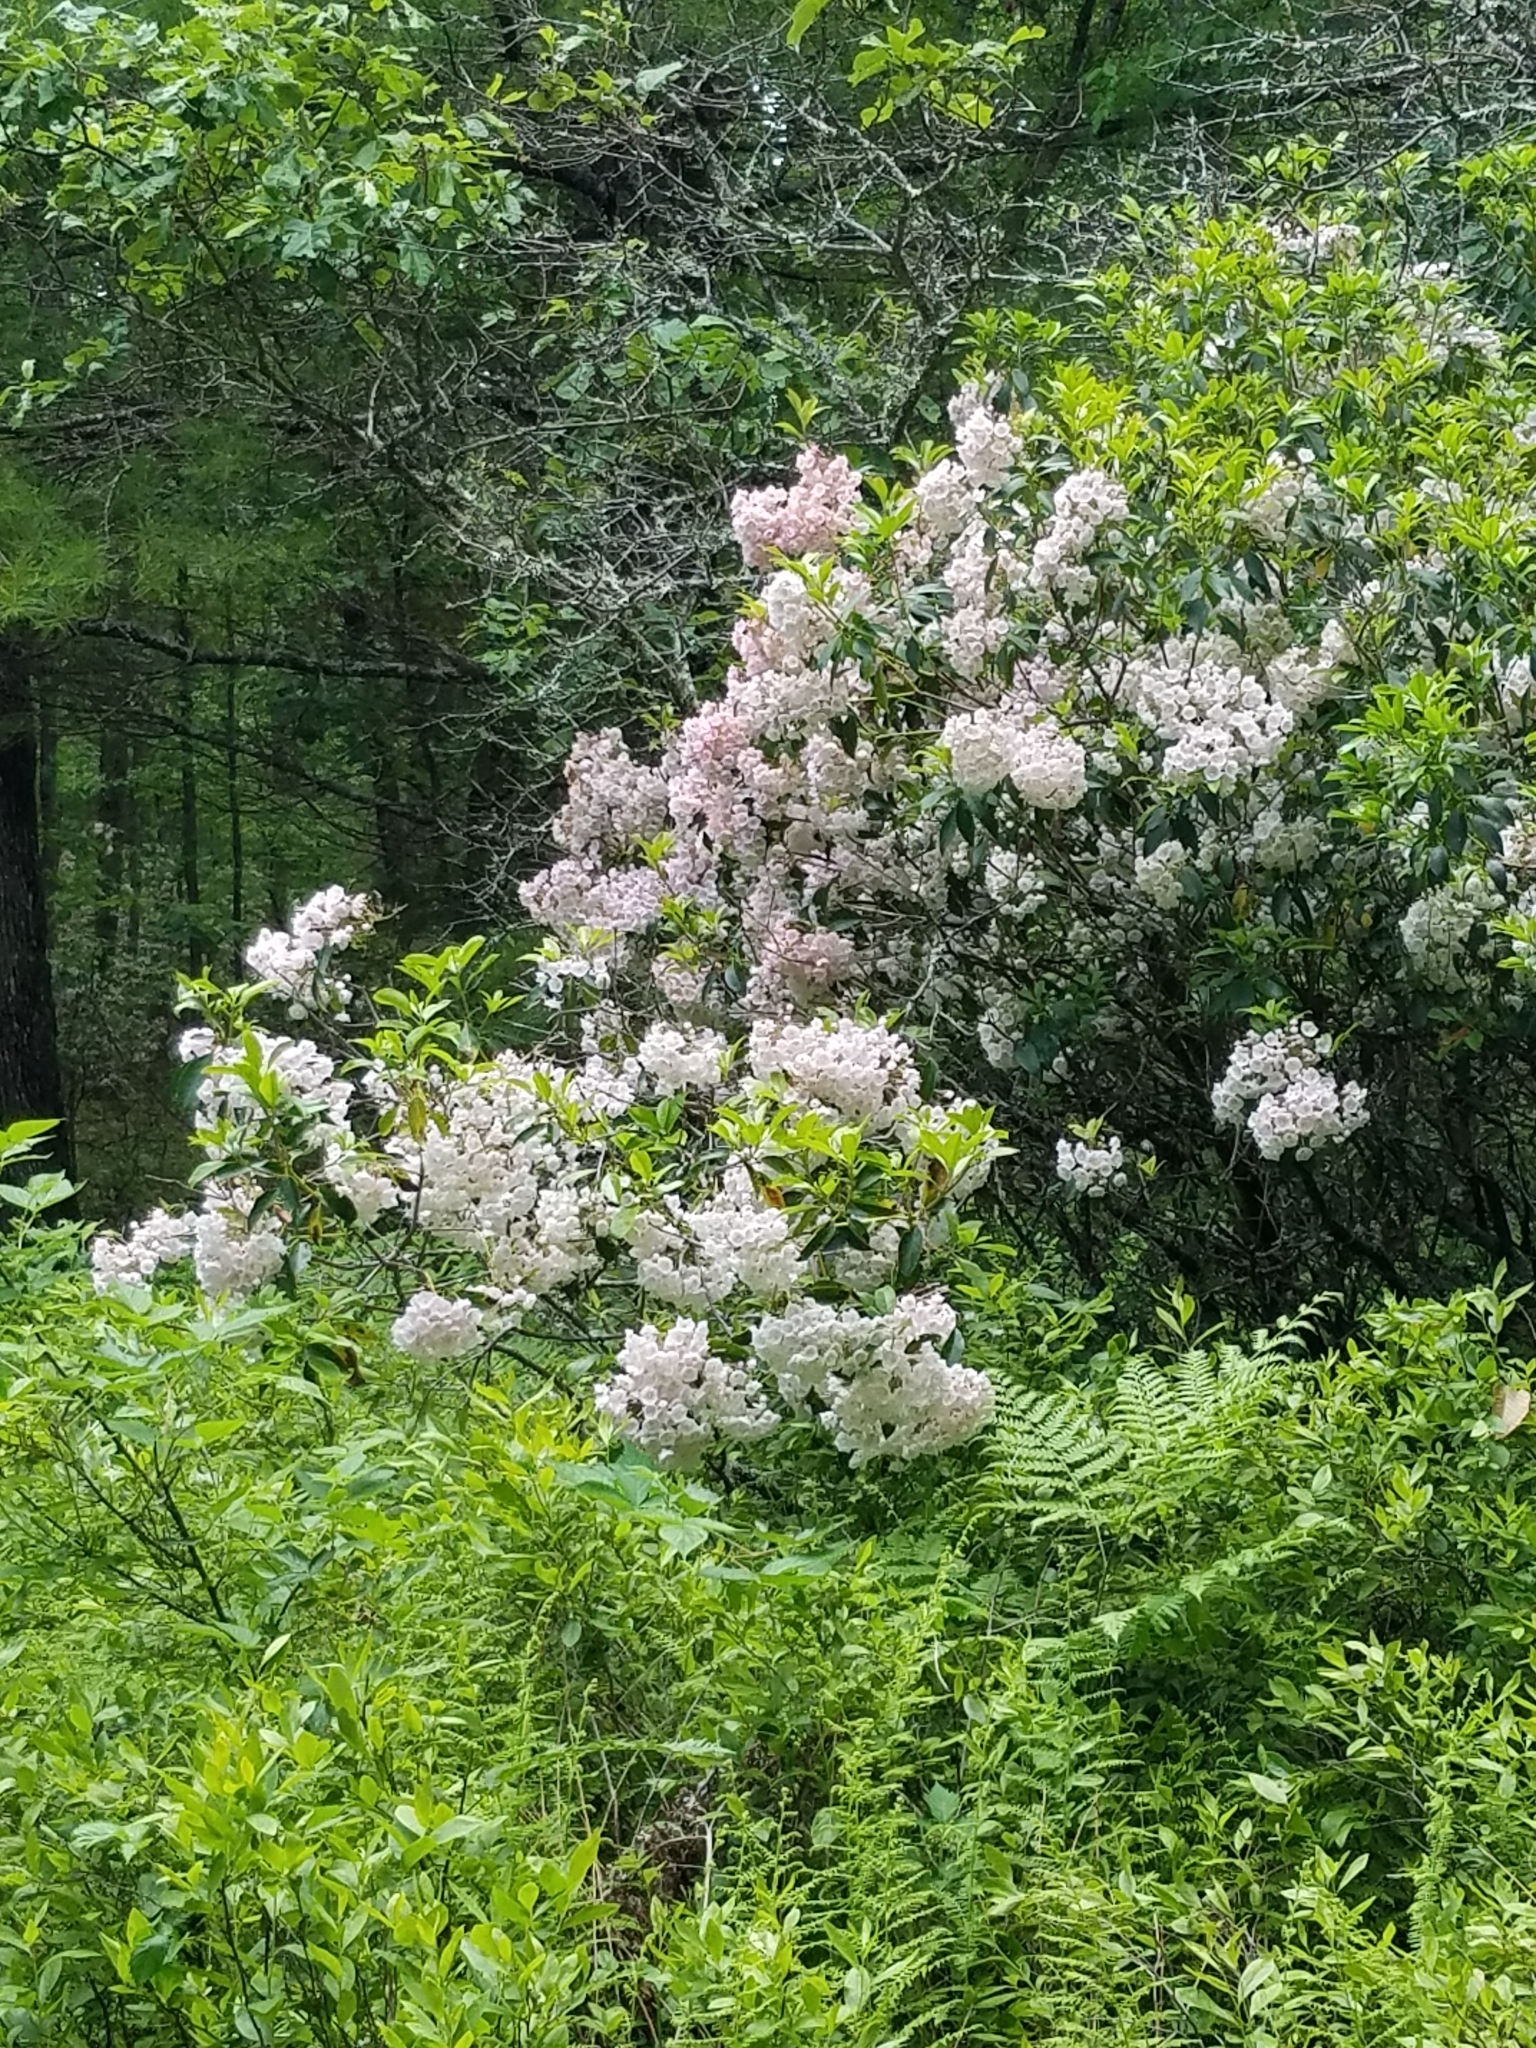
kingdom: Plantae
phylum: Tracheophyta
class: Magnoliopsida
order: Ericales
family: Ericaceae
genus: Kalmia
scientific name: Kalmia latifolia
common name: Mountain-laurel
